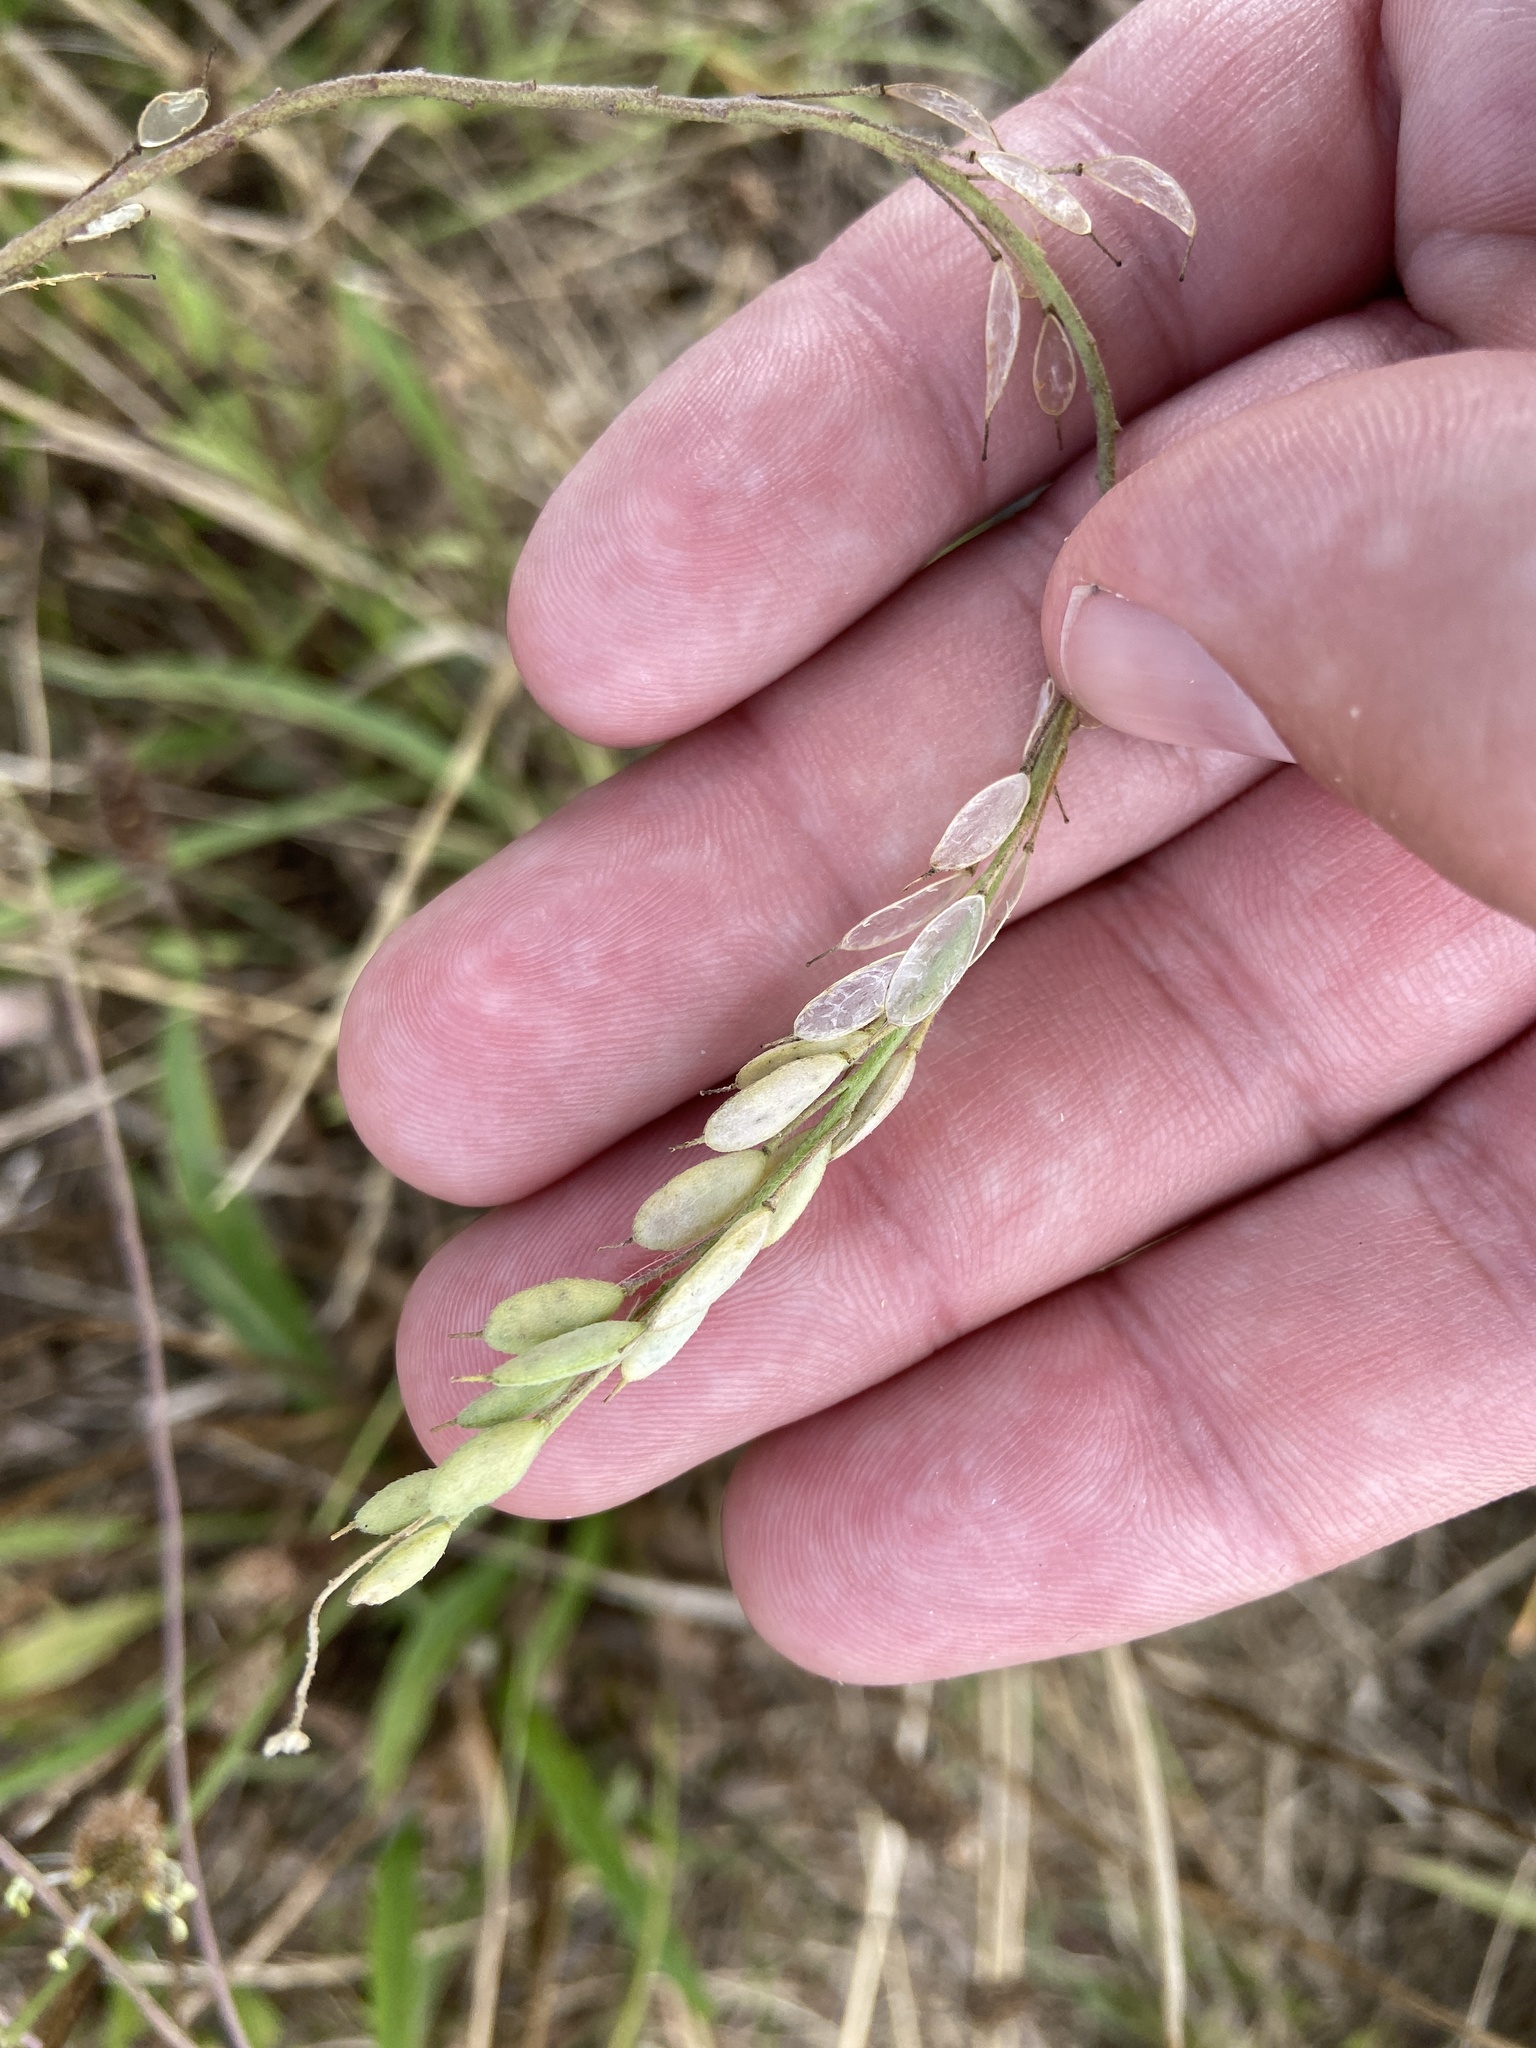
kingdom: Plantae
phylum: Tracheophyta
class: Magnoliopsida
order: Brassicales
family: Brassicaceae
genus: Berteroa
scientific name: Berteroa incana
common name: Hoary alison
